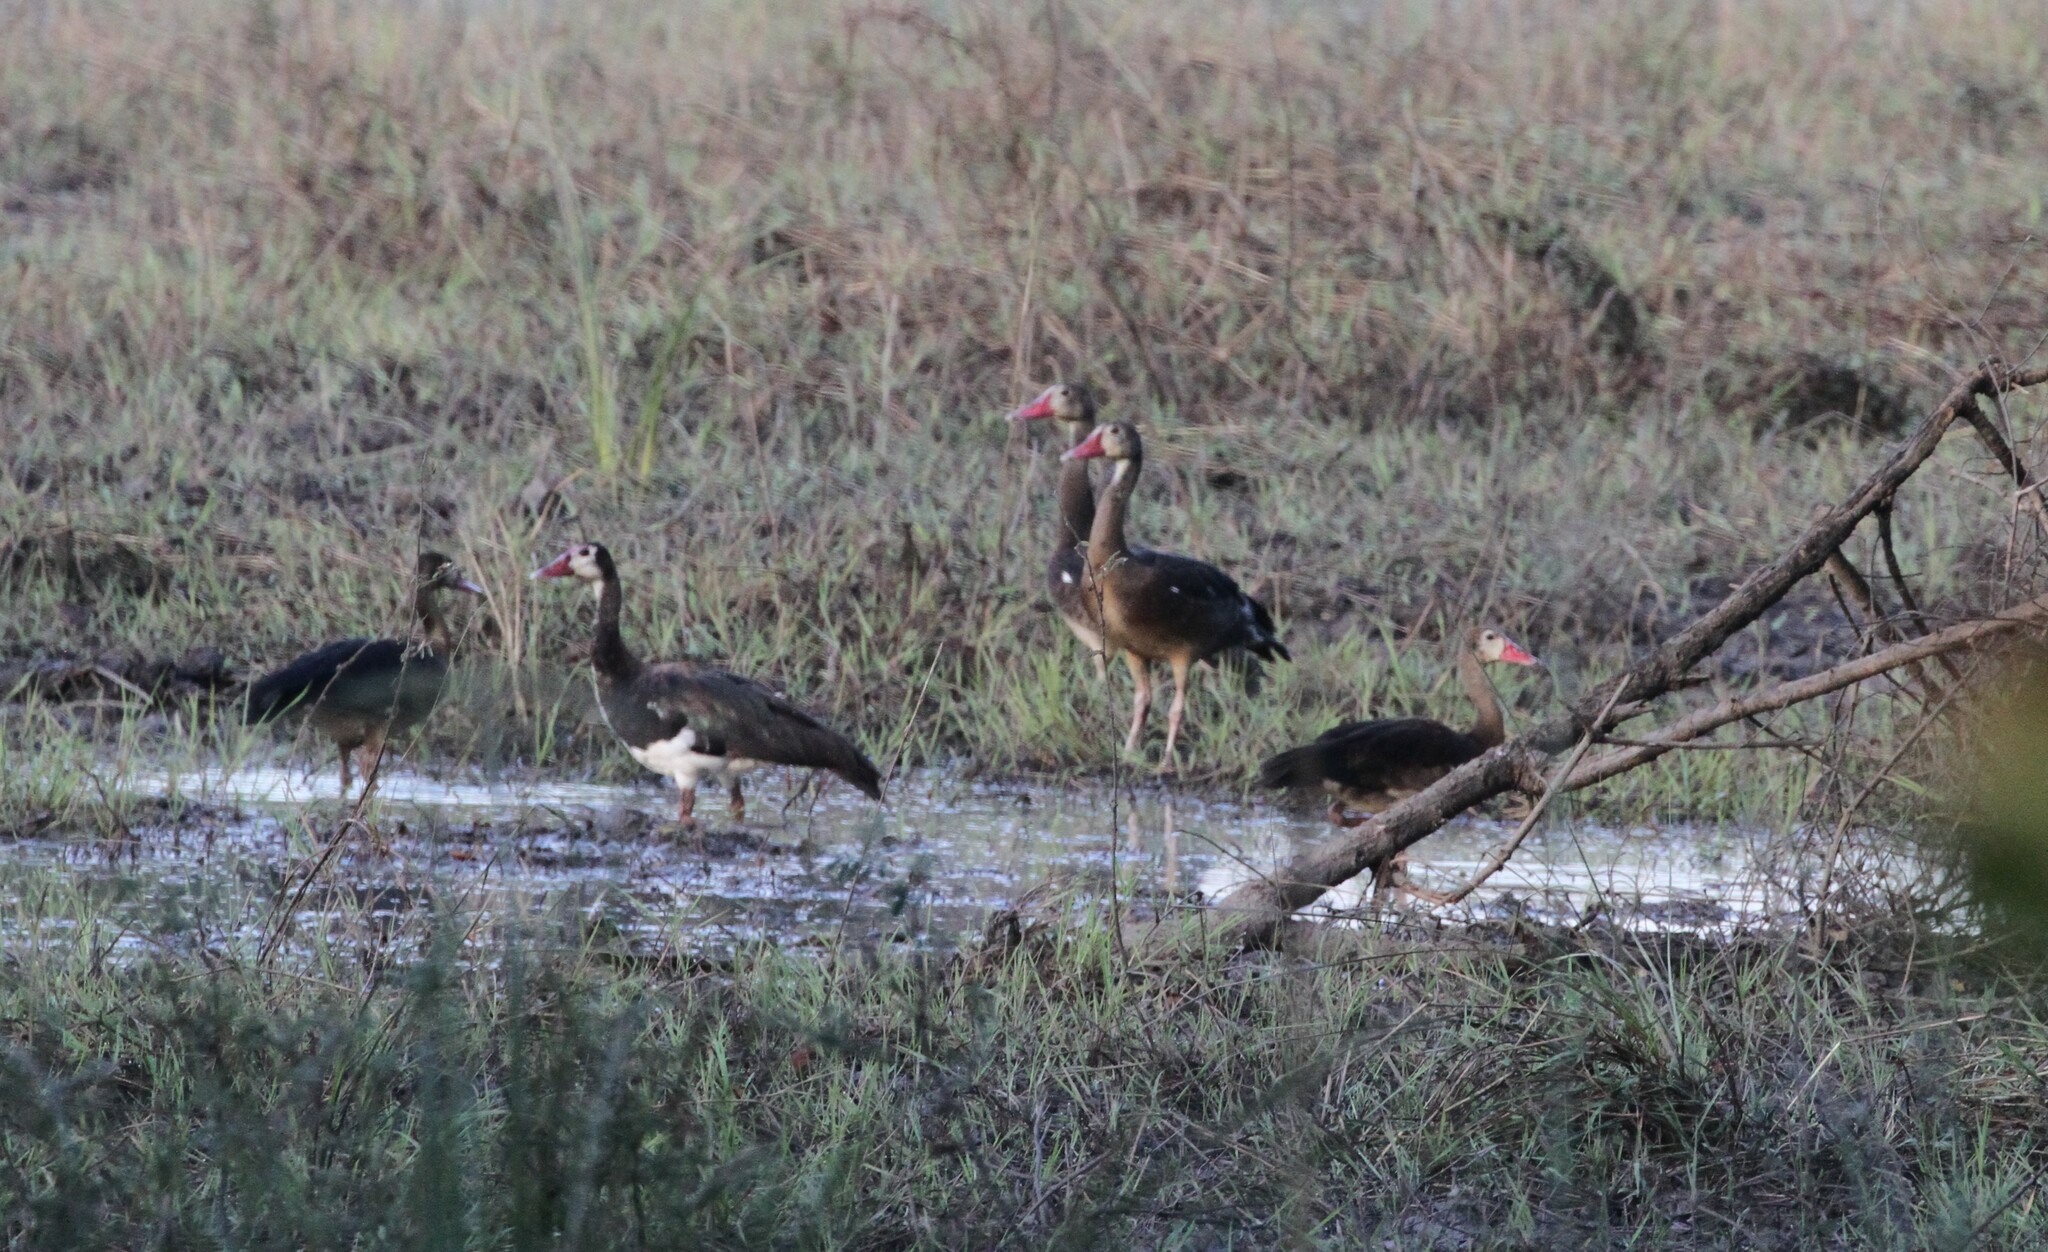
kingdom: Animalia
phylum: Chordata
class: Aves
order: Anseriformes
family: Anatidae
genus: Plectropterus
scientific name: Plectropterus gambensis
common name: Spur-winged goose
